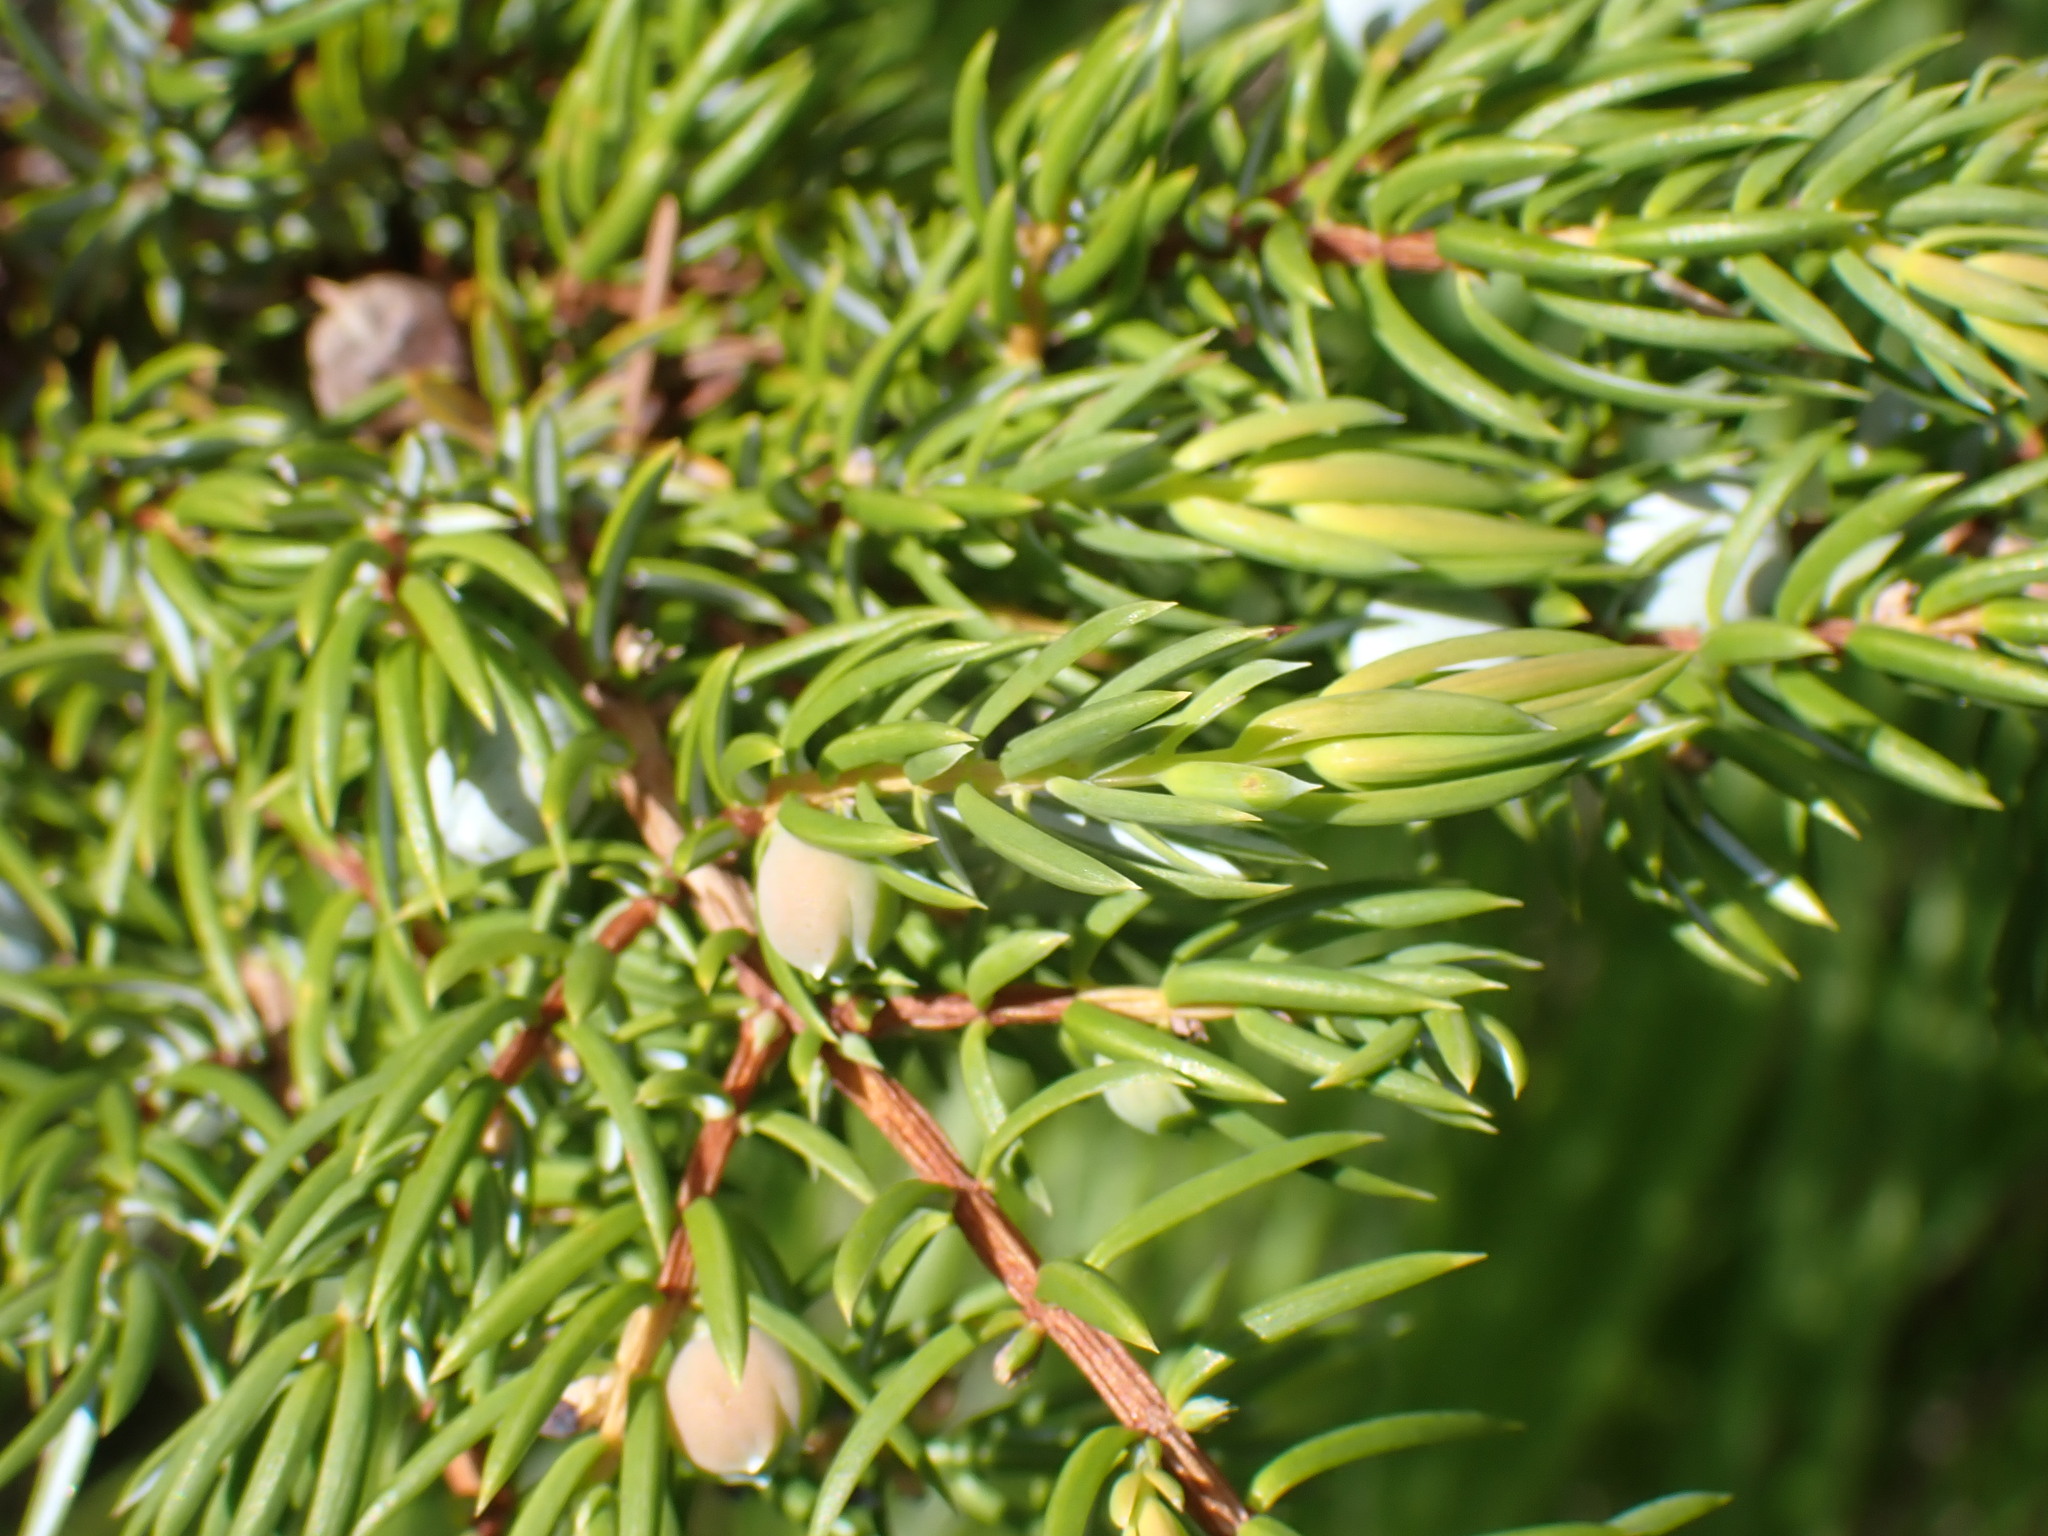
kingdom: Plantae
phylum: Tracheophyta
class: Pinopsida
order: Pinales
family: Cupressaceae
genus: Juniperus
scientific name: Juniperus communis
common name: Common juniper
